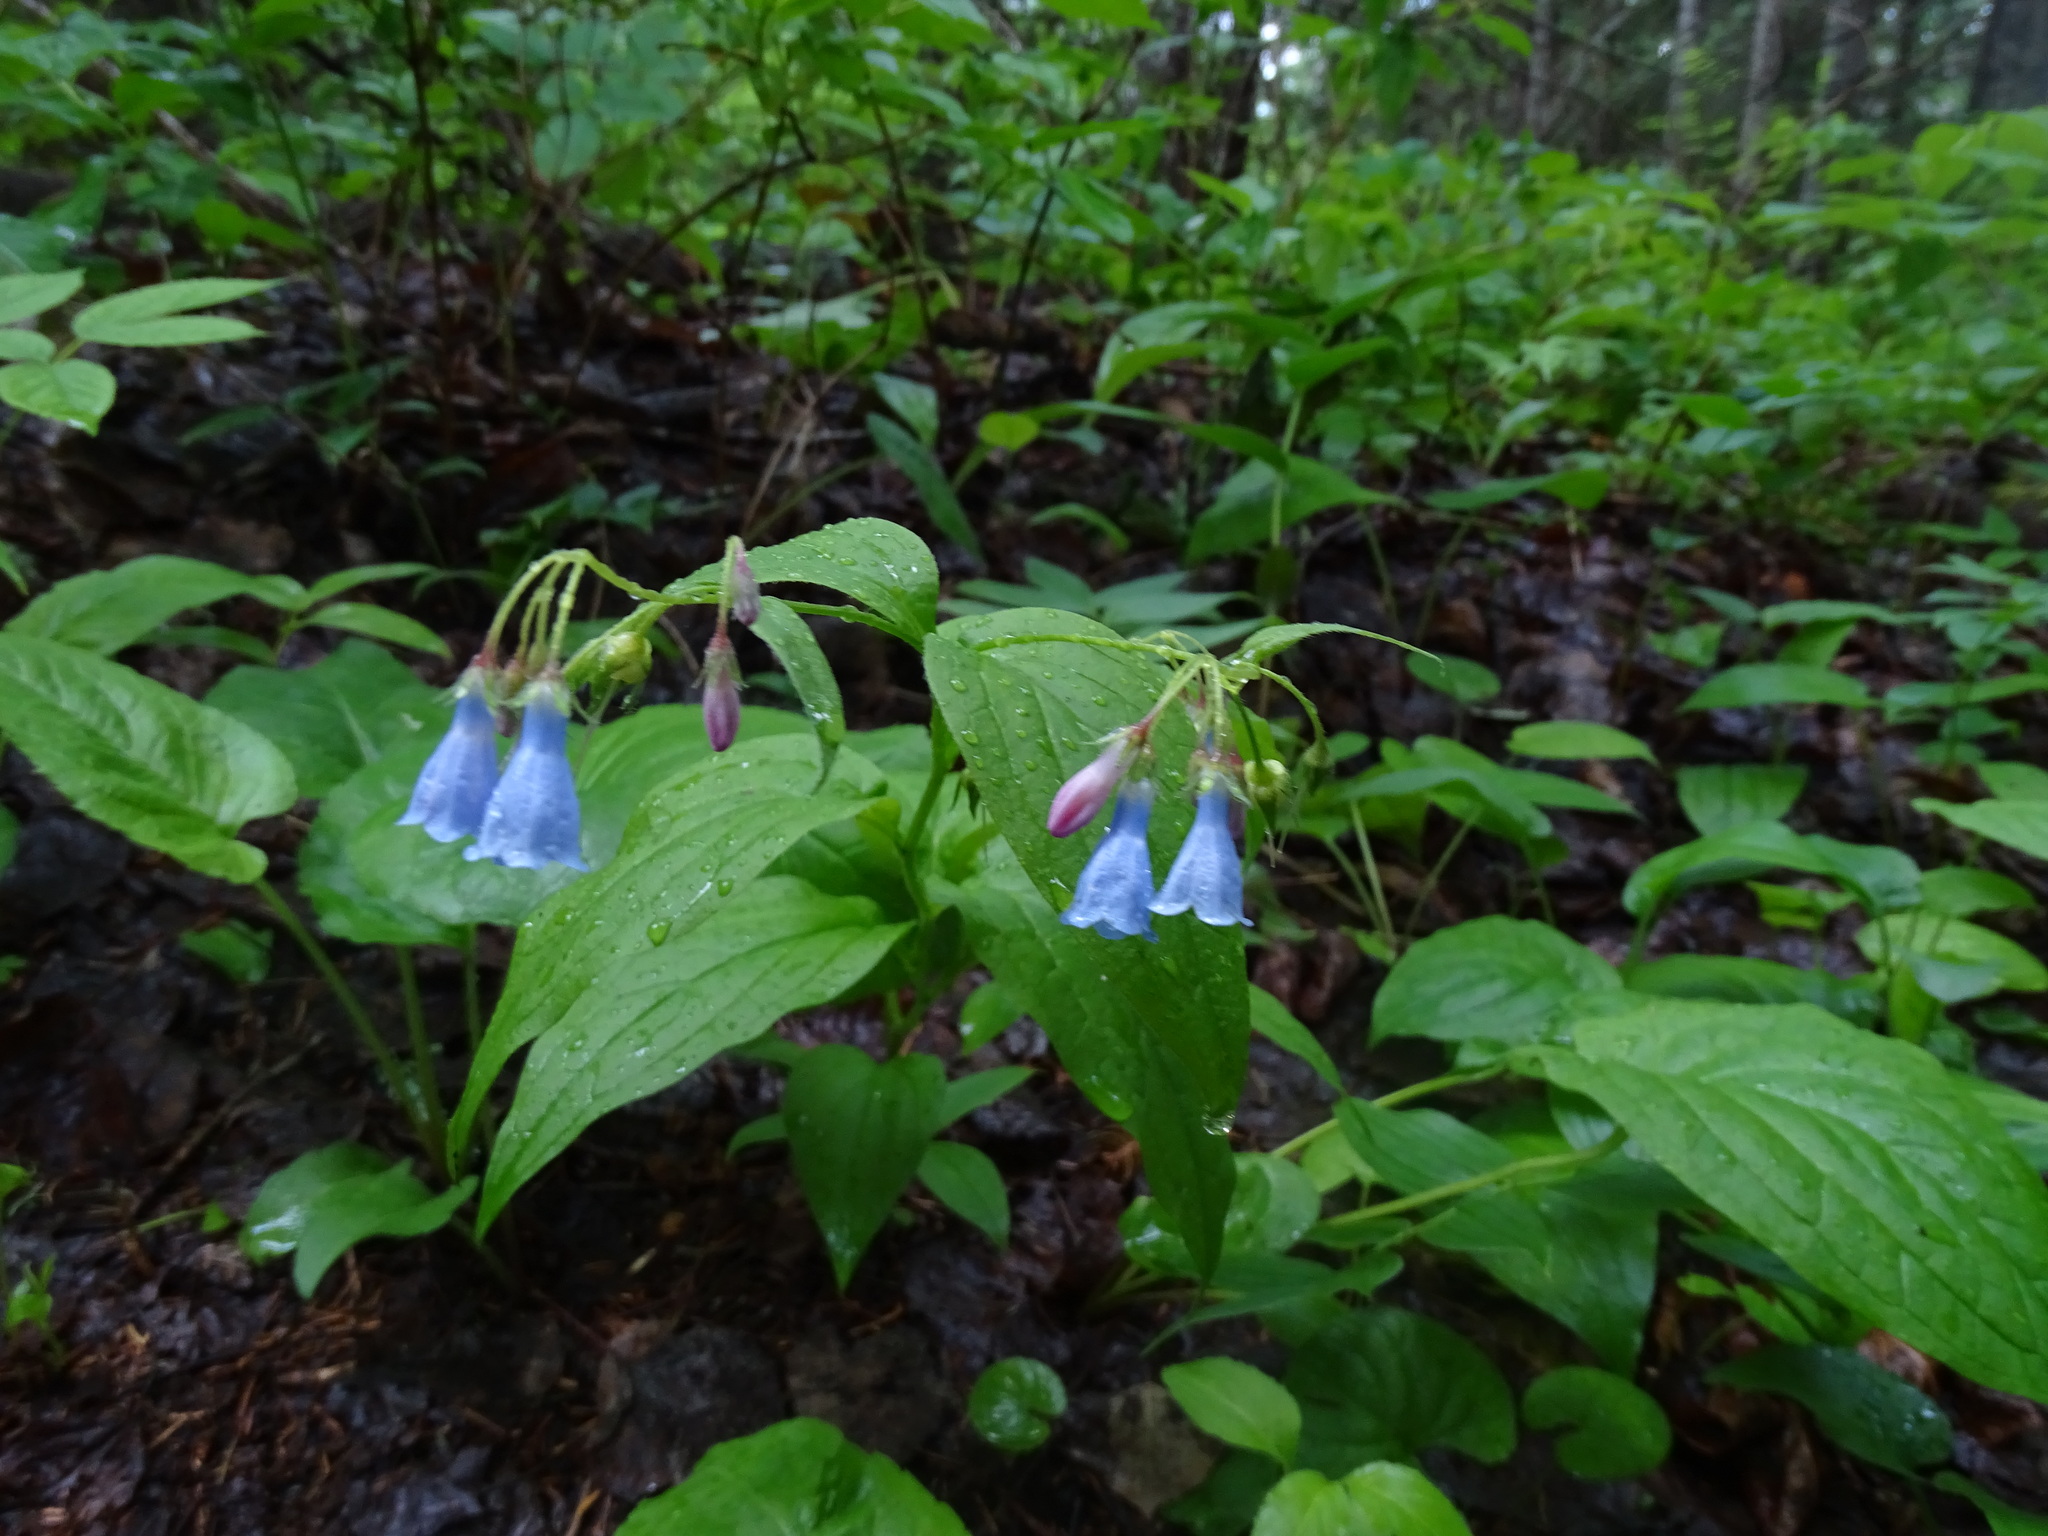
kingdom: Plantae
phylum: Tracheophyta
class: Magnoliopsida
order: Boraginales
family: Boraginaceae
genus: Mertensia
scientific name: Mertensia paniculata
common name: Panicled bluebells
